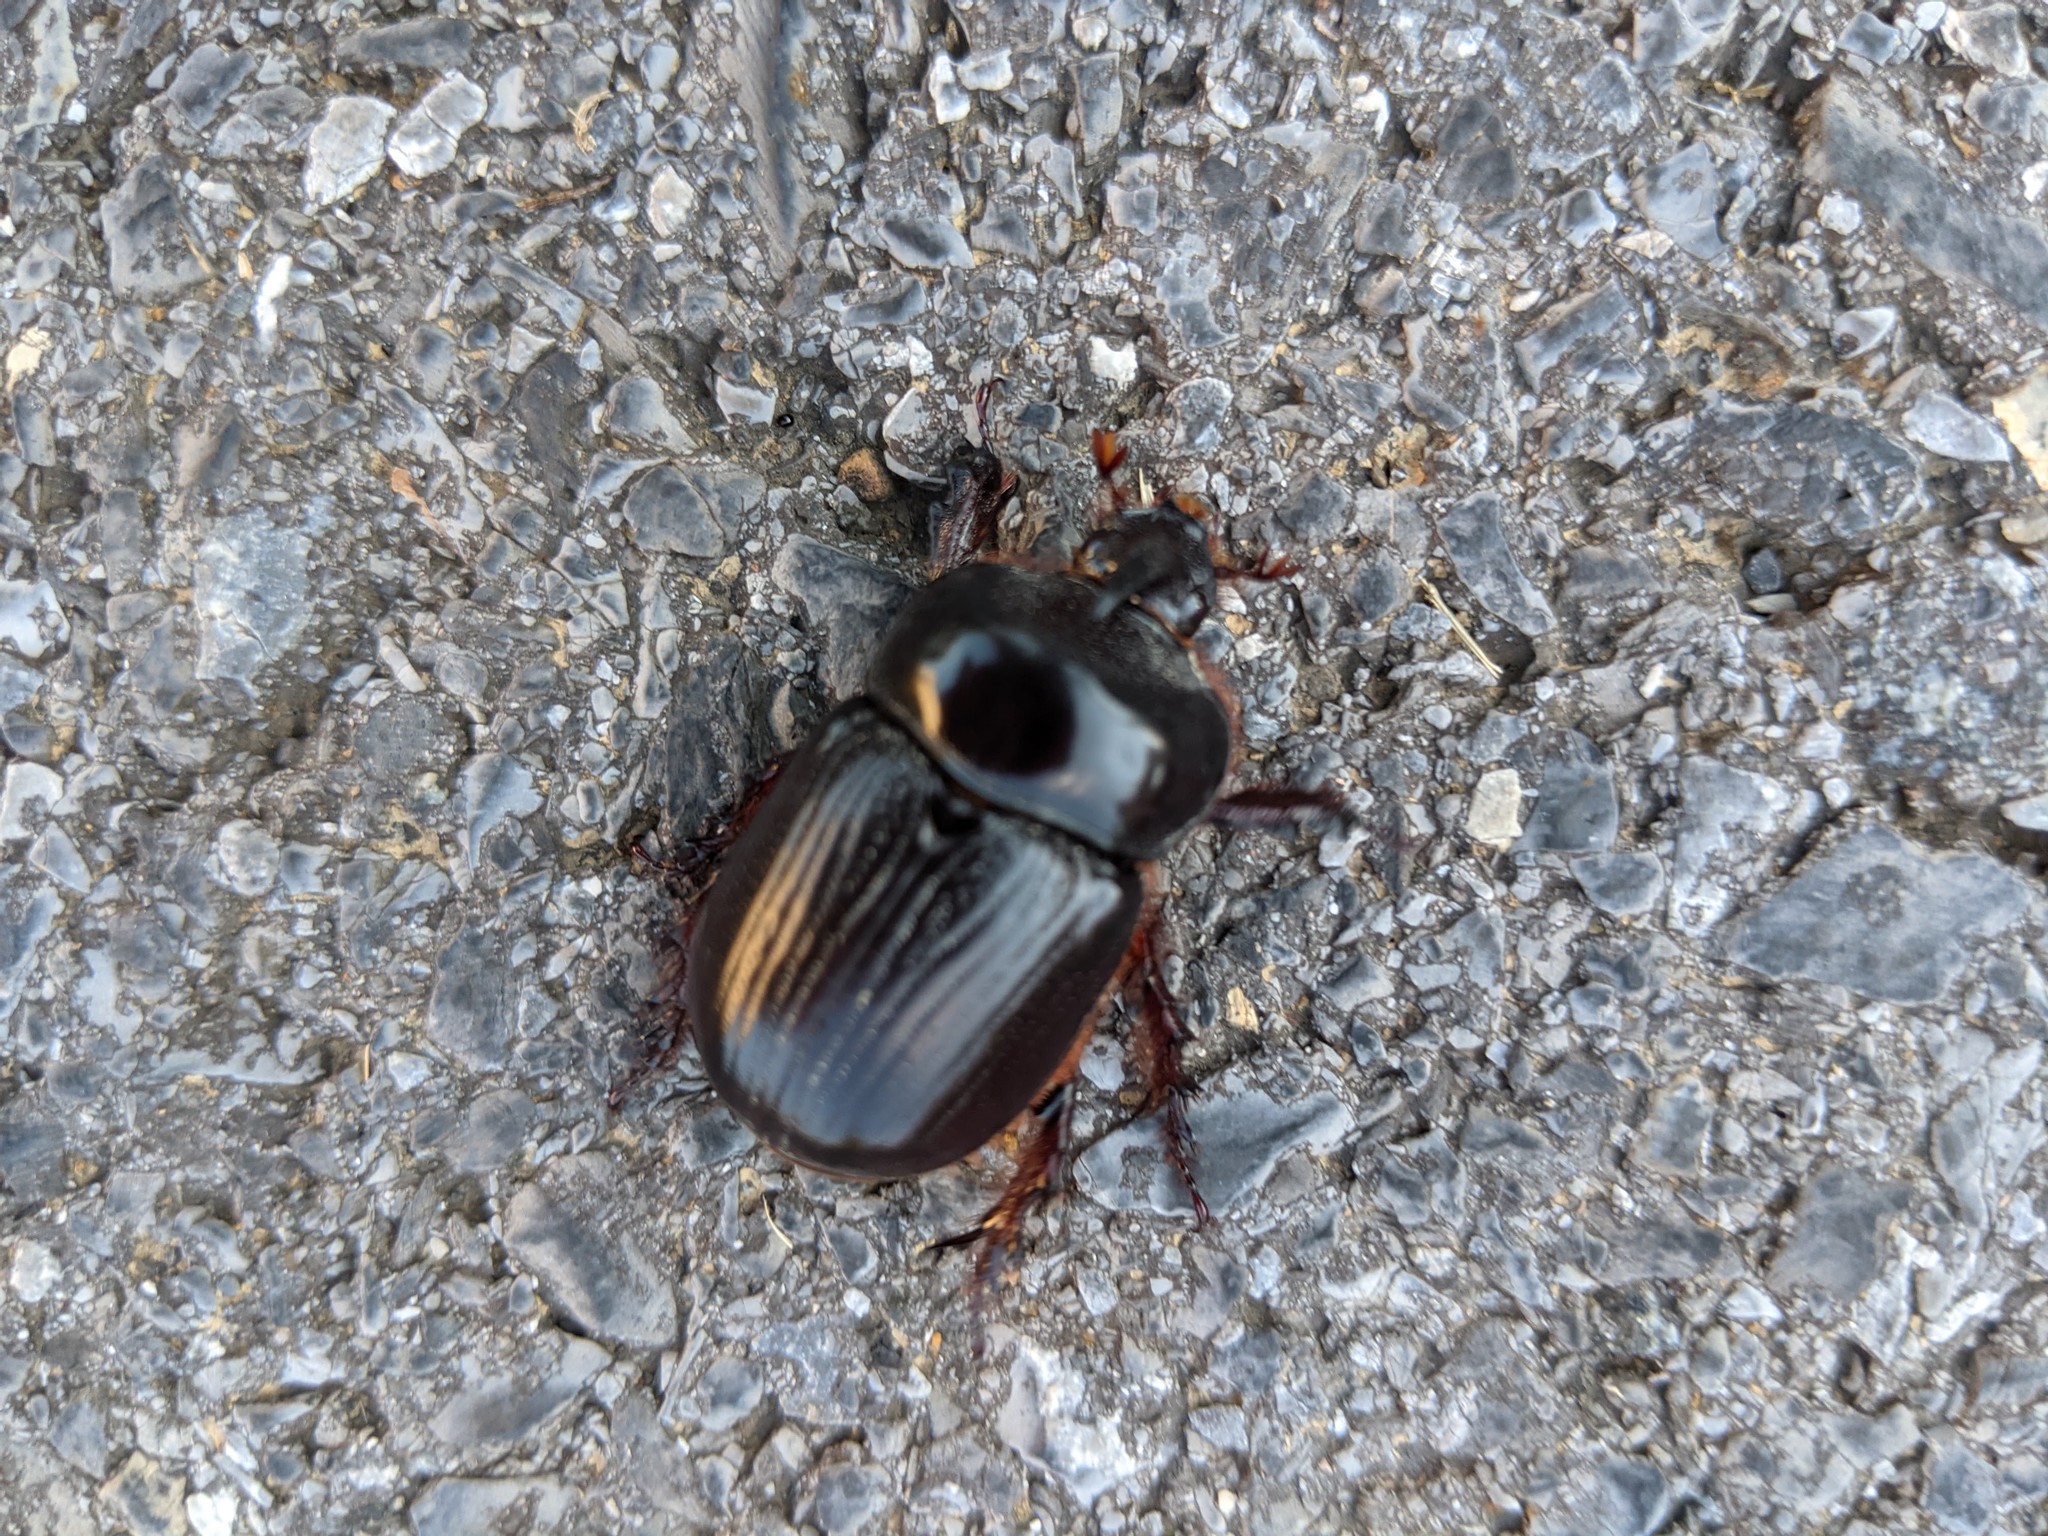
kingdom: Animalia
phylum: Arthropoda
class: Insecta
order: Coleoptera
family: Scarabaeidae
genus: Xyloryctes
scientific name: Xyloryctes jamaicensis
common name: Eastern rhinoceros beetle
